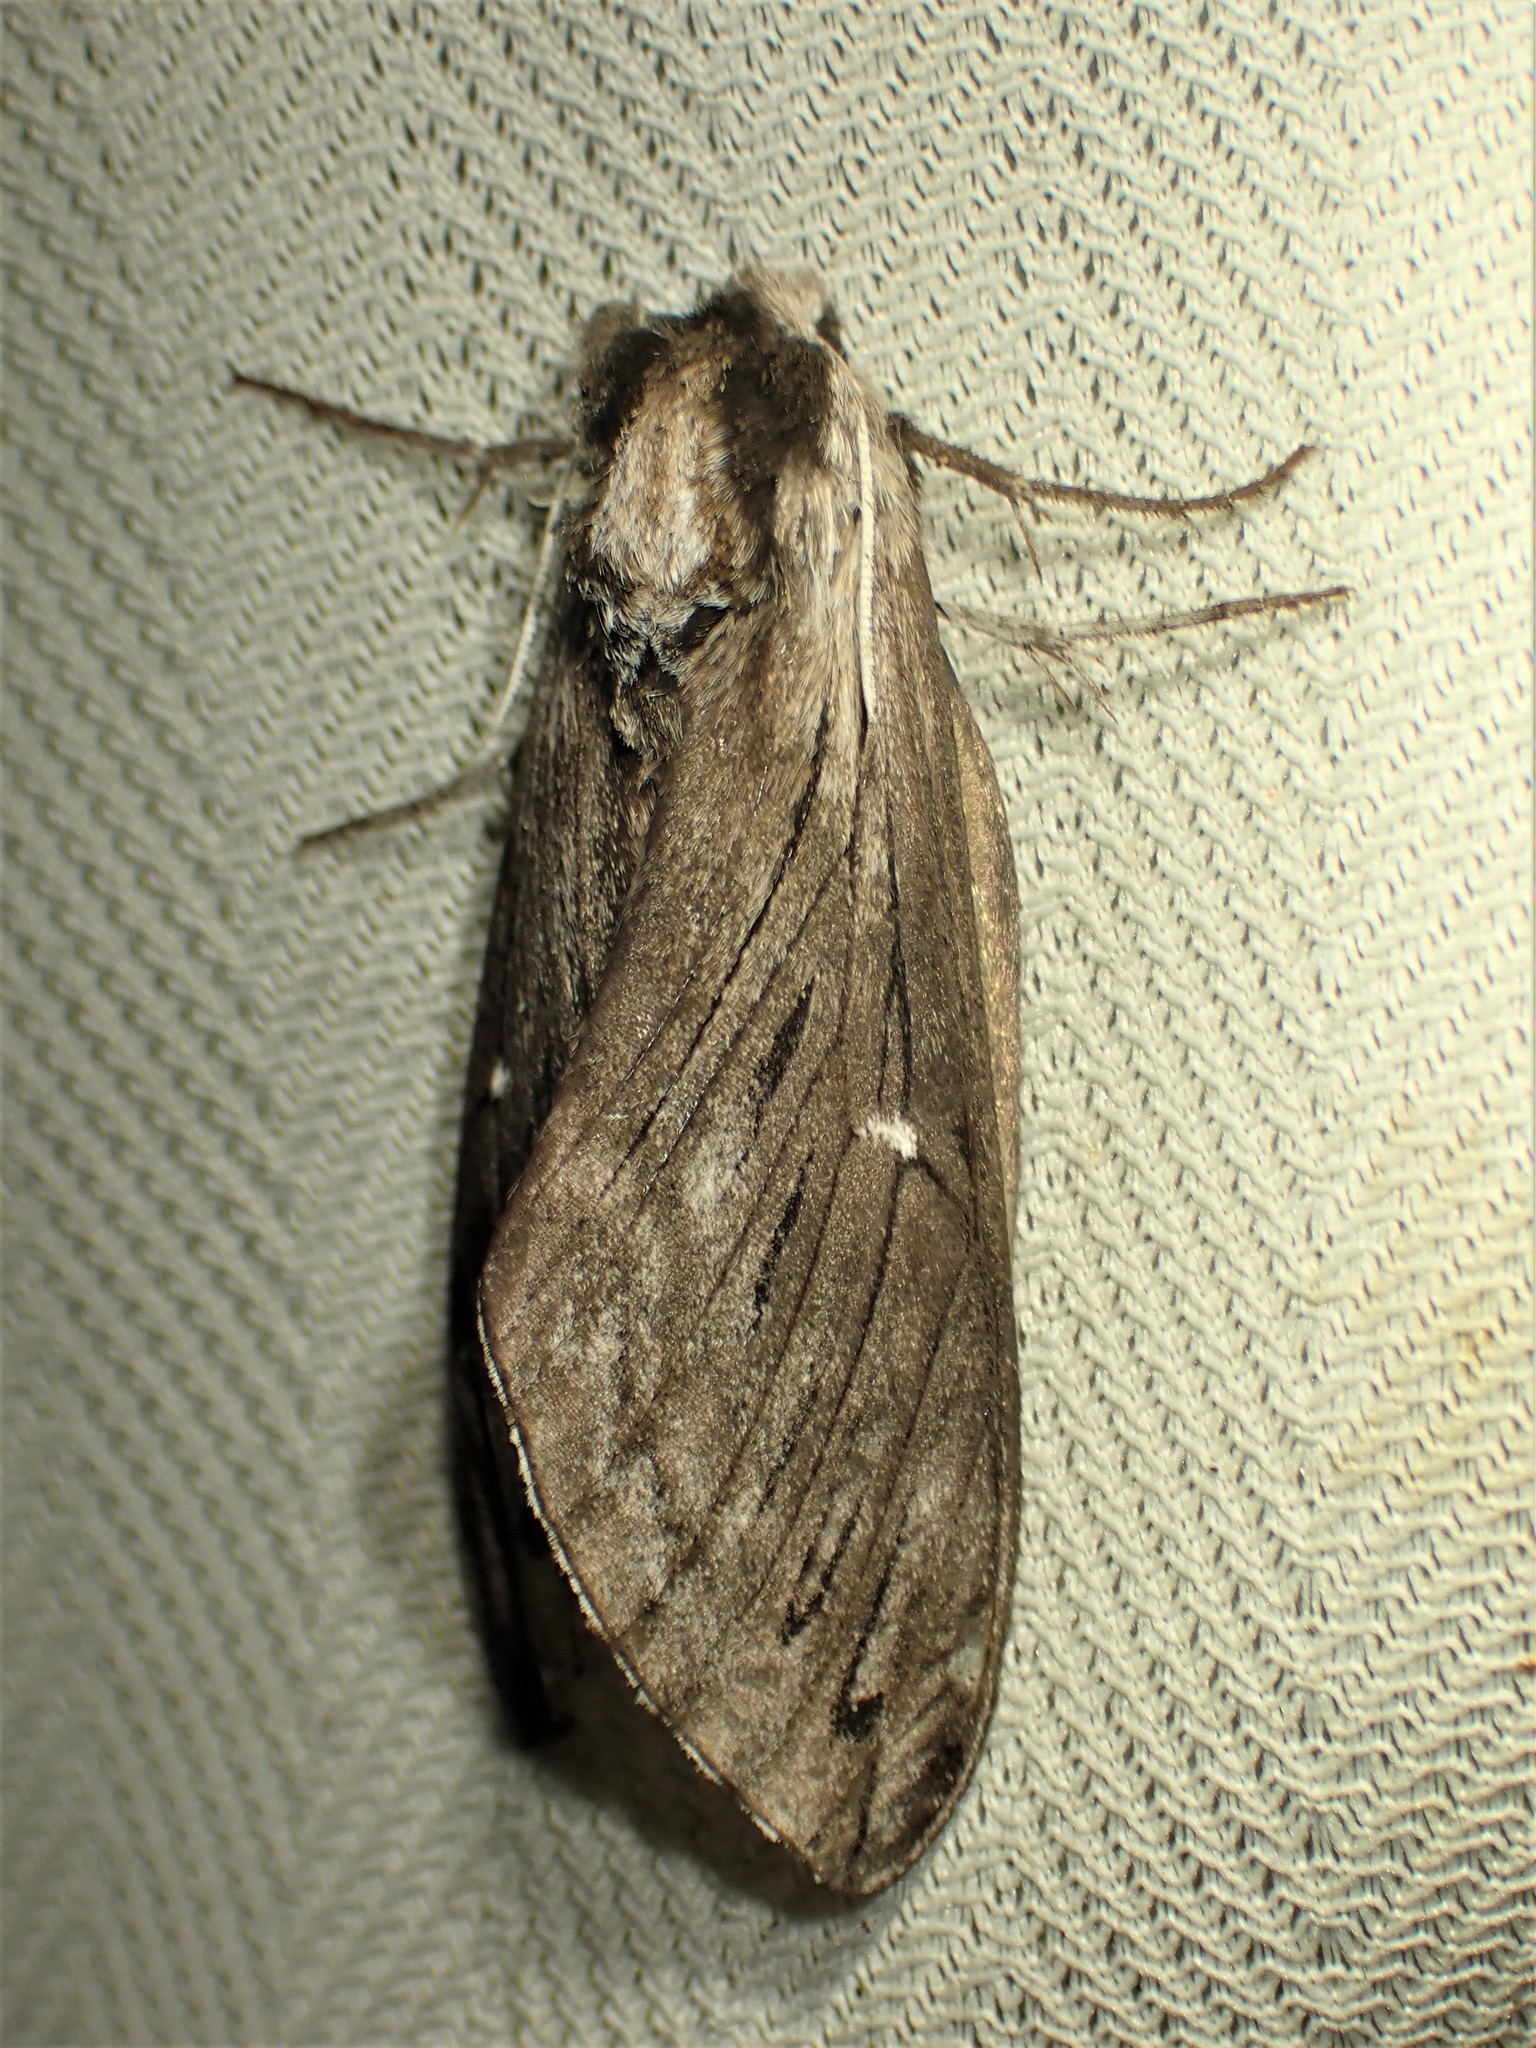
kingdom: Animalia
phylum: Arthropoda
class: Insecta
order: Lepidoptera
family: Sphingidae
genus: Sphinx
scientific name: Sphinx poecila
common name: Northern apple sphinx
